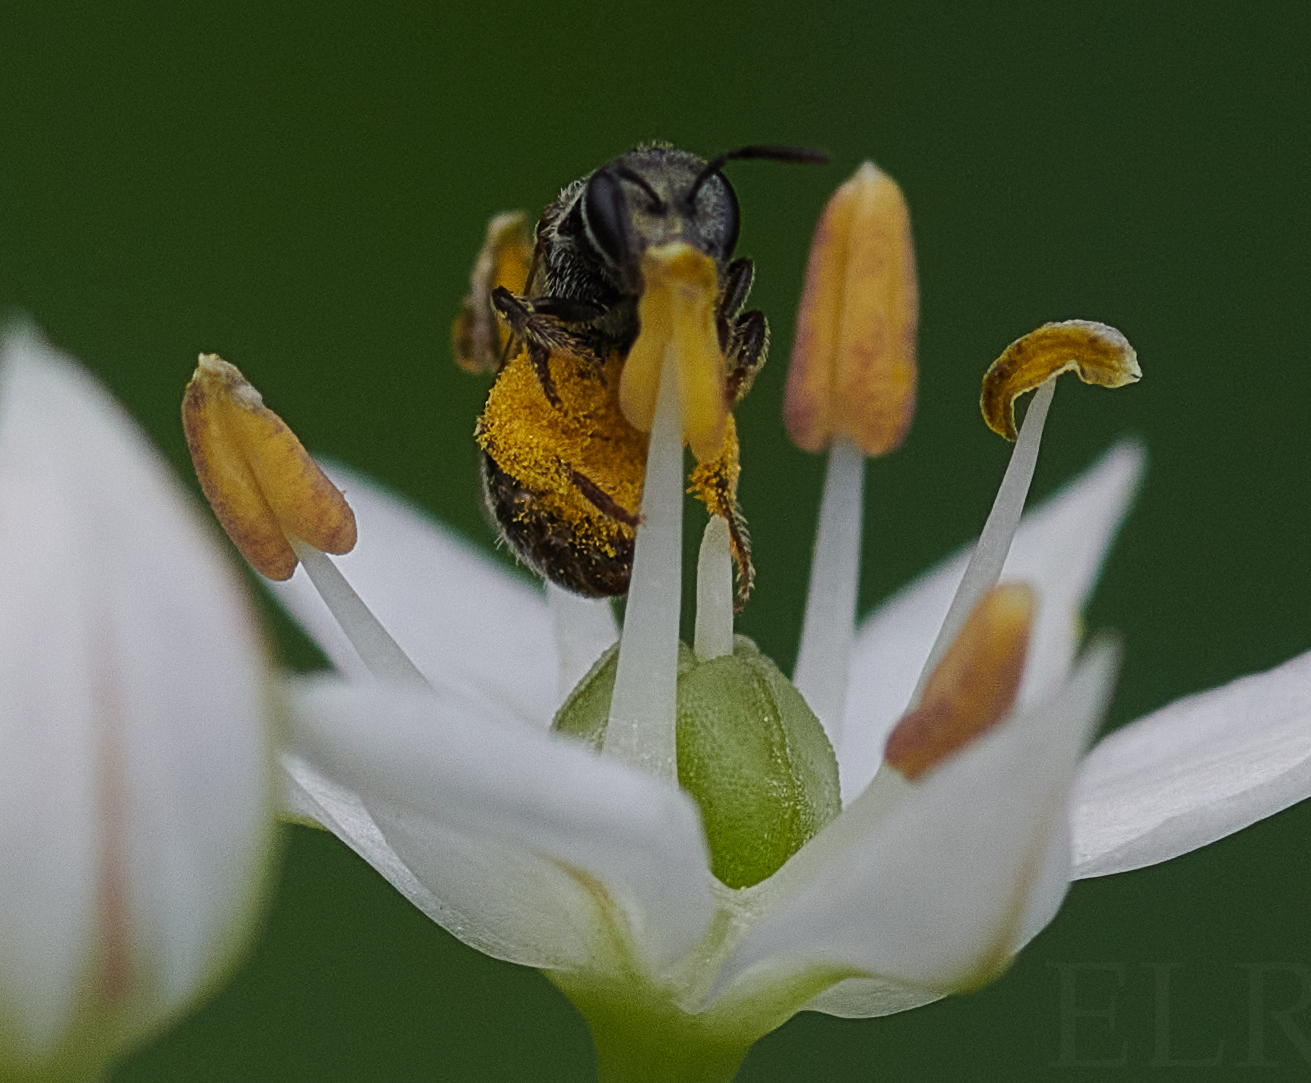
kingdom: Animalia
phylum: Arthropoda
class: Insecta
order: Hymenoptera
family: Halictidae
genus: Lasioglossum
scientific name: Lasioglossum imitatum
